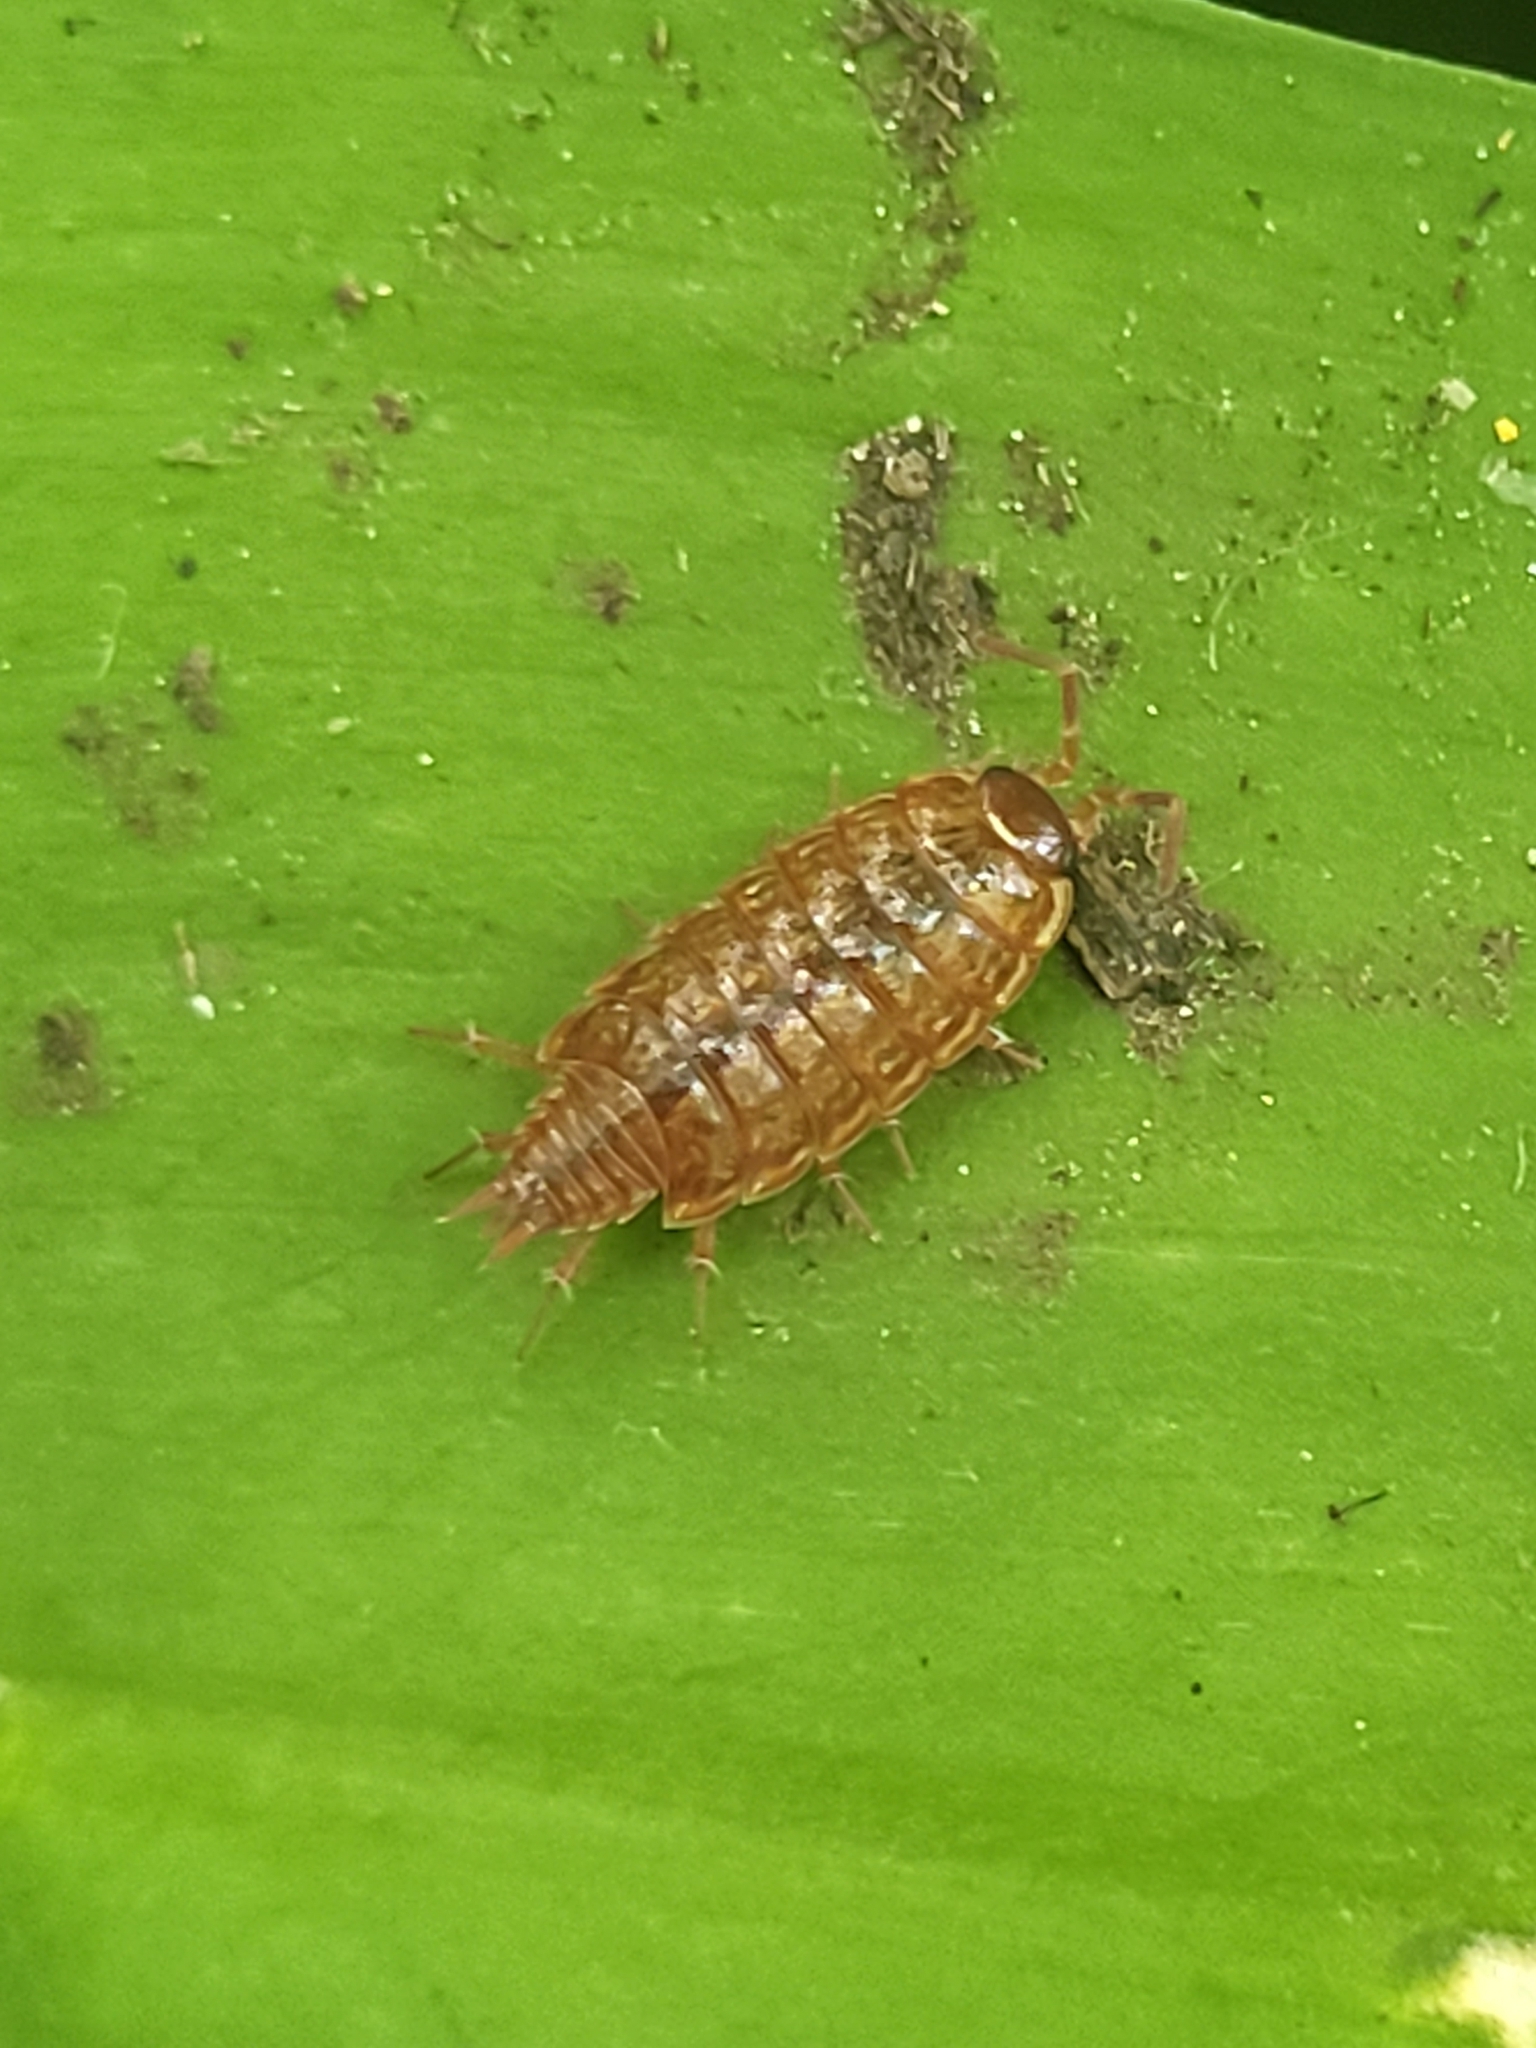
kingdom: Animalia
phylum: Arthropoda
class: Malacostraca
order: Isopoda
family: Philosciidae
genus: Philoscia
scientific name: Philoscia muscorum
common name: Common striped woodlouse
